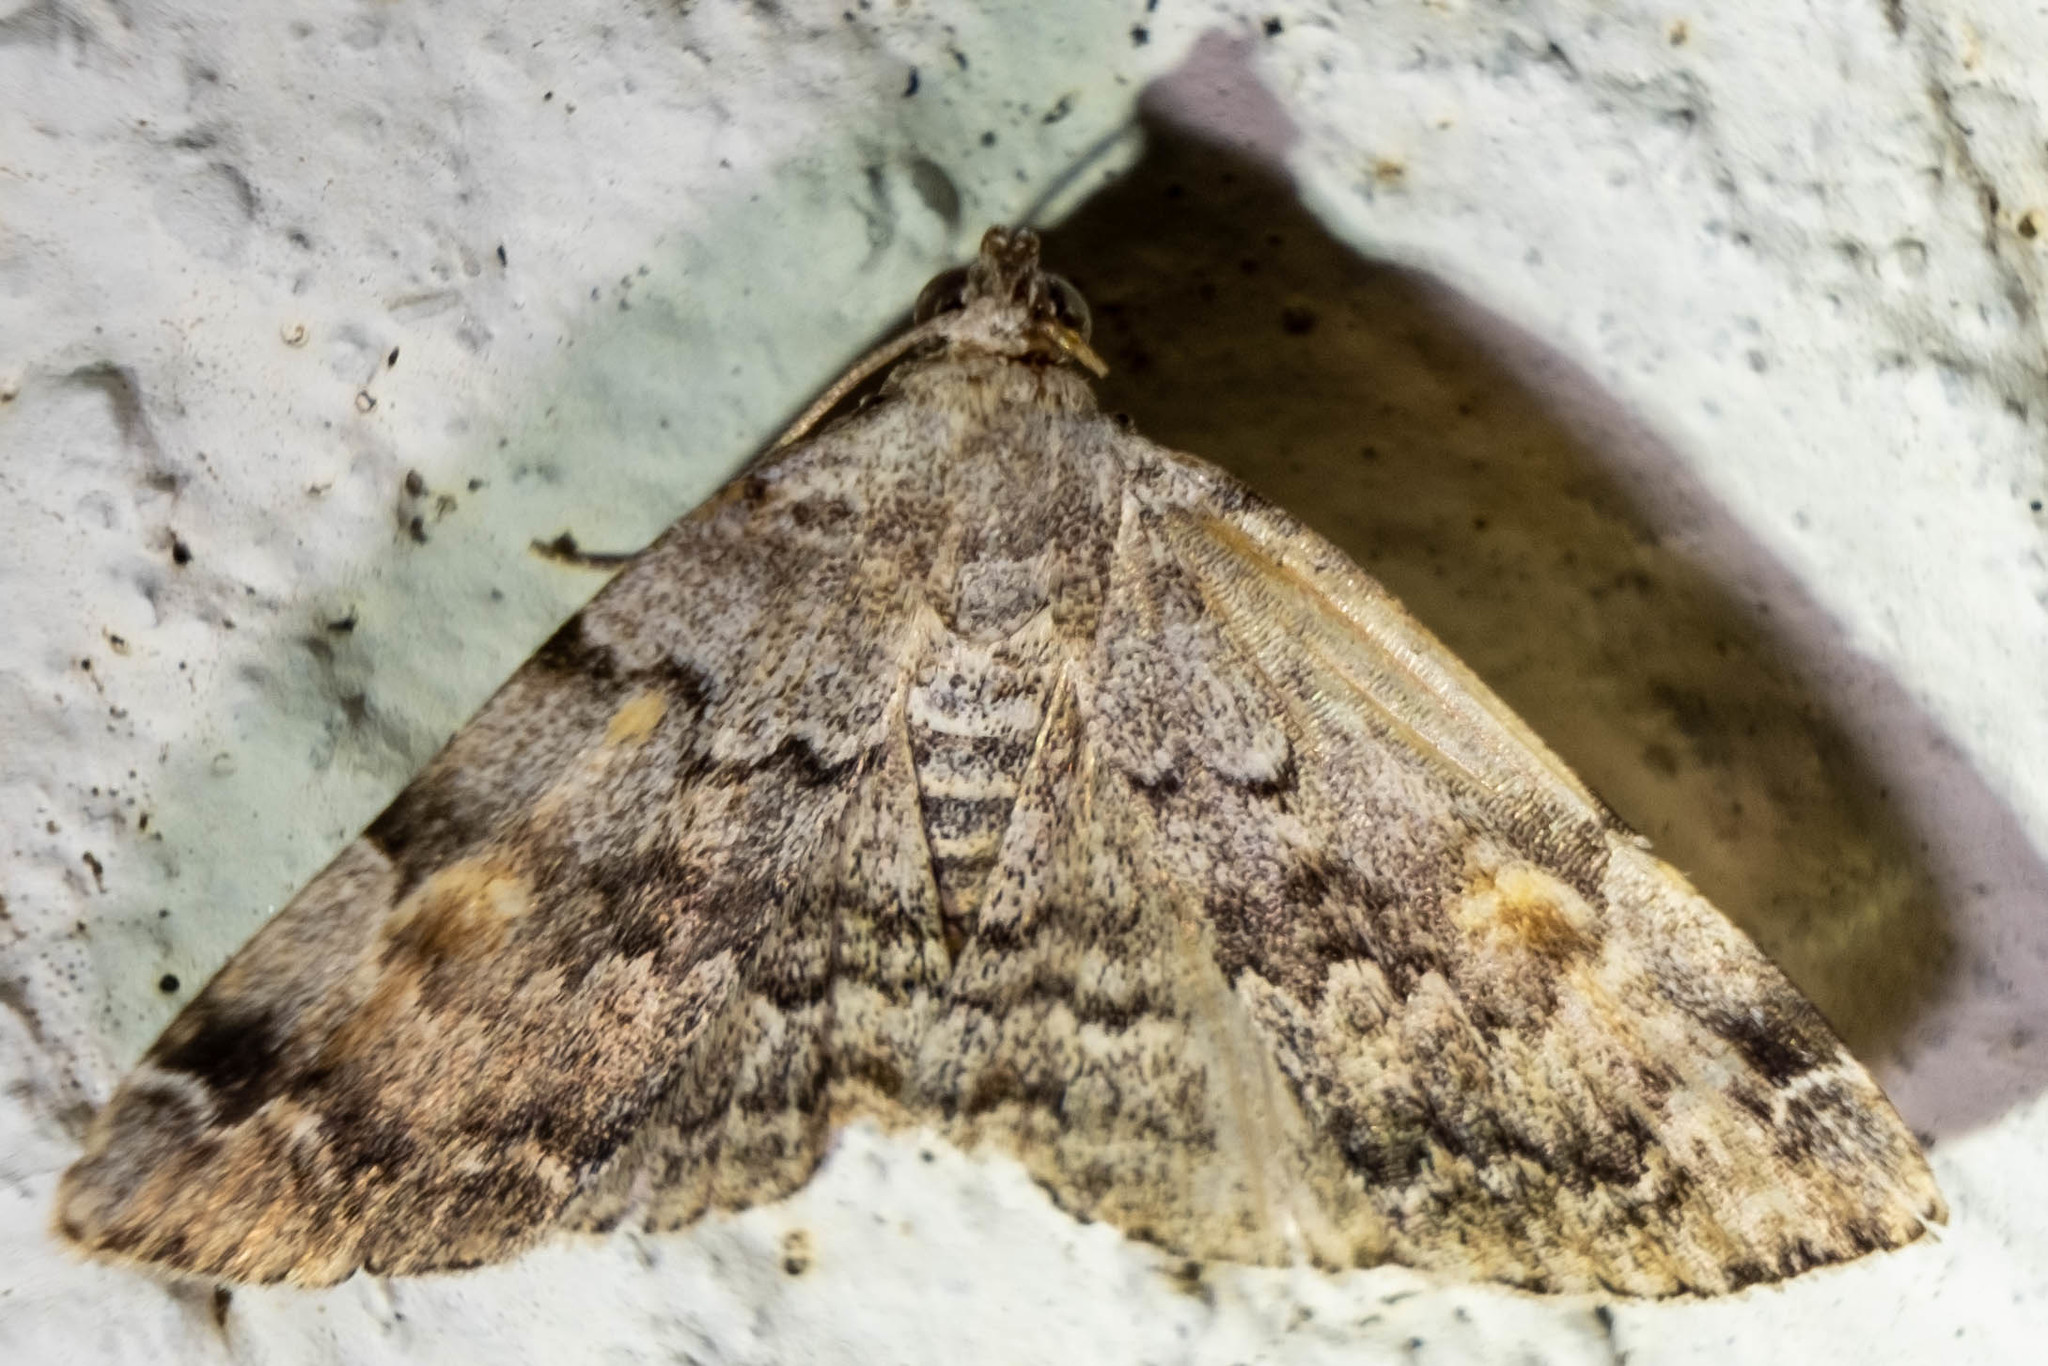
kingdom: Animalia
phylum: Arthropoda
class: Insecta
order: Lepidoptera
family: Erebidae
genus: Idia
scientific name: Idia americalis
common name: American idia moth
